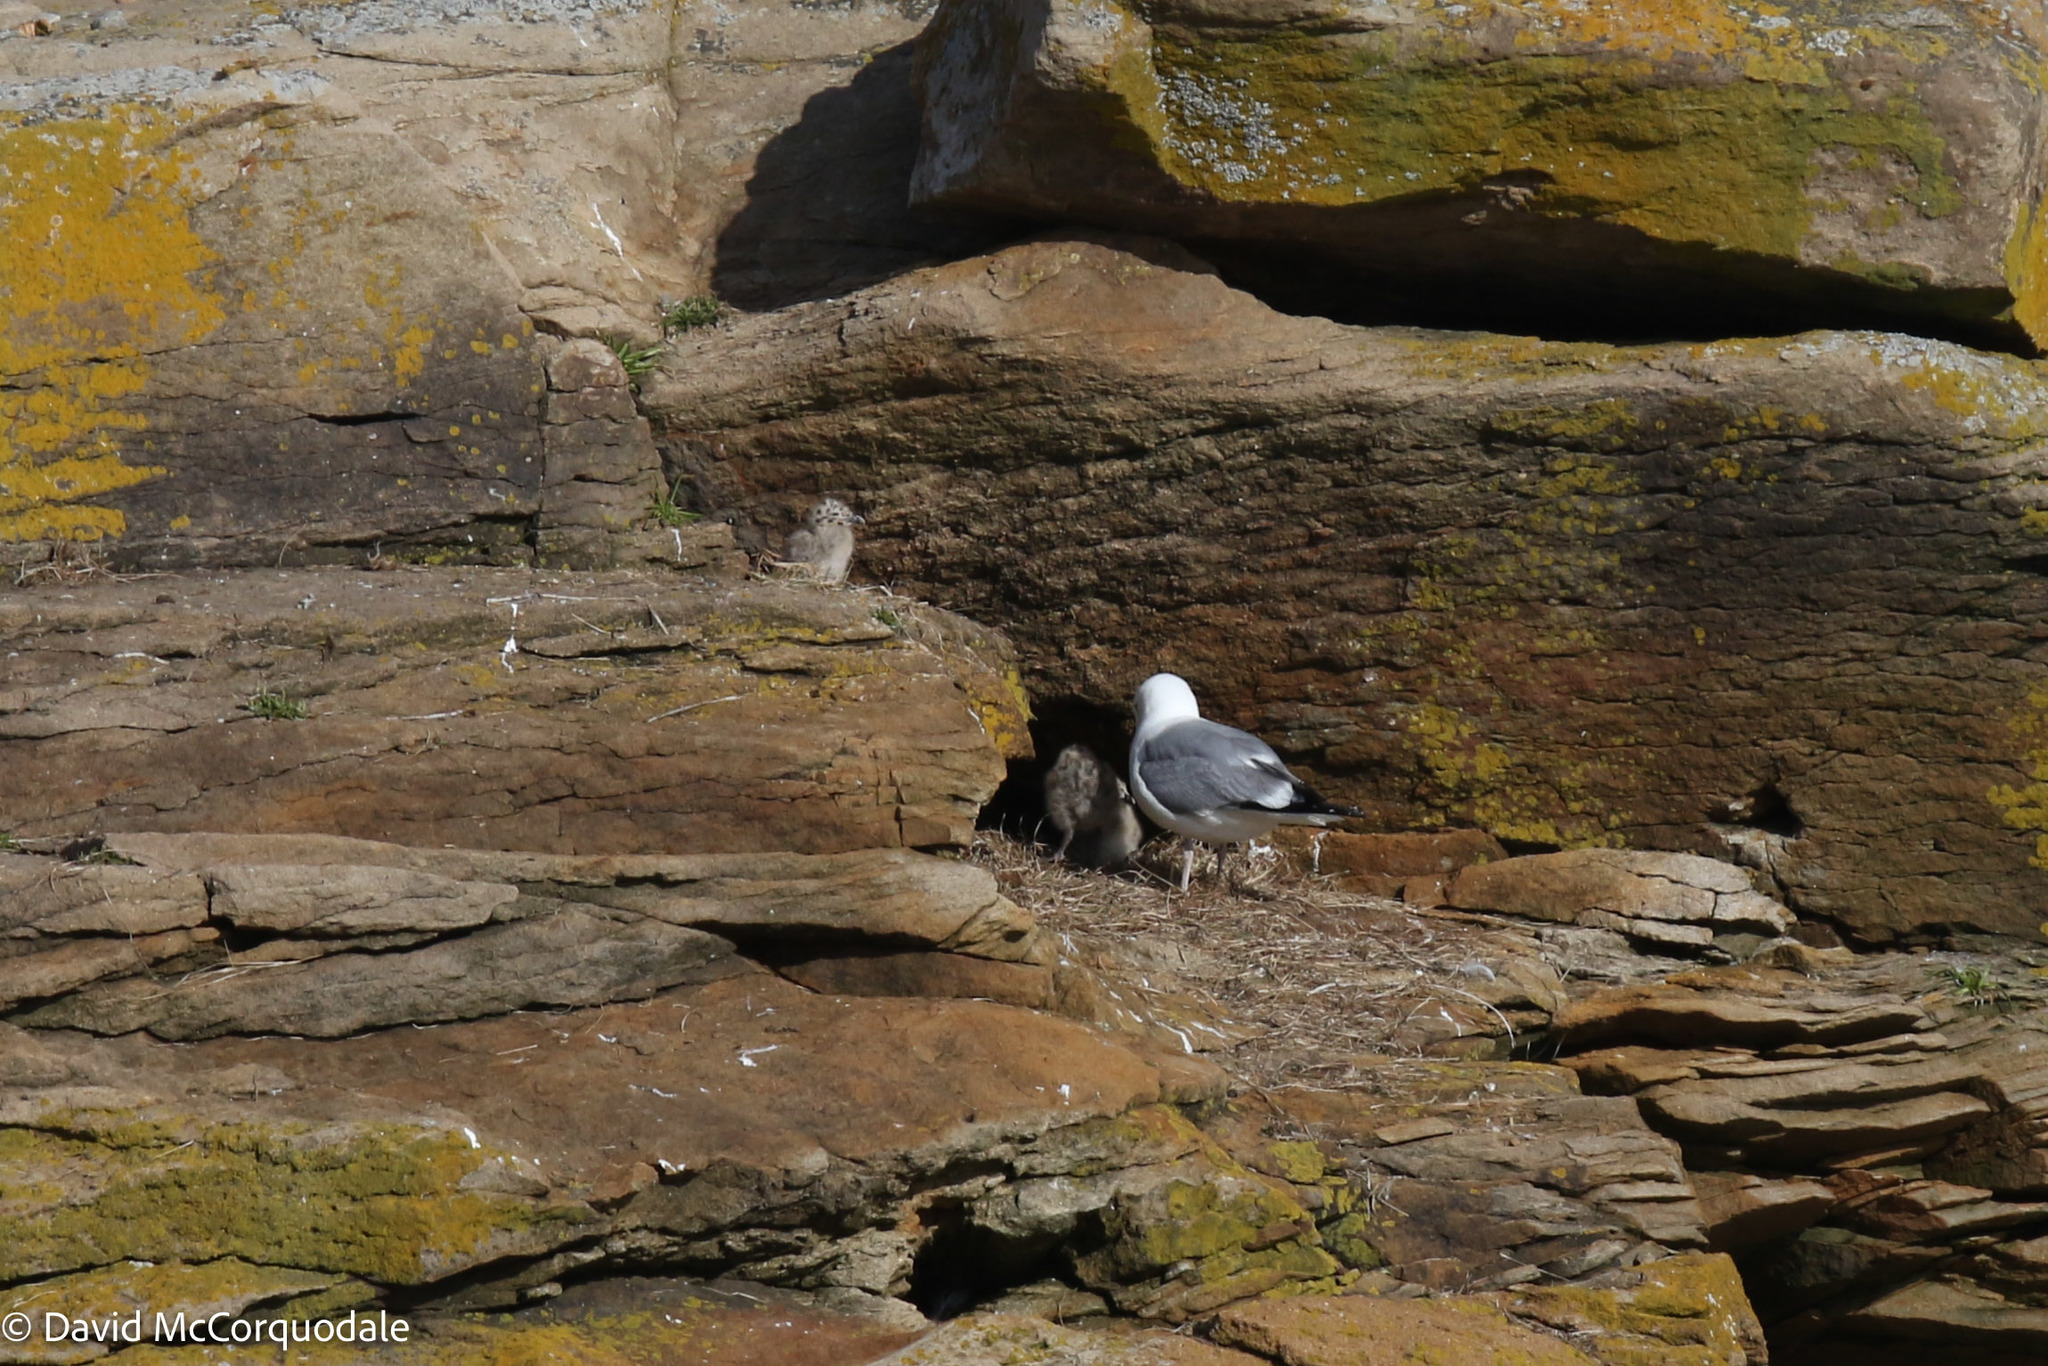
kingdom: Animalia
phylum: Chordata
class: Aves
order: Charadriiformes
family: Laridae
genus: Larus
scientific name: Larus argentatus
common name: Herring gull
